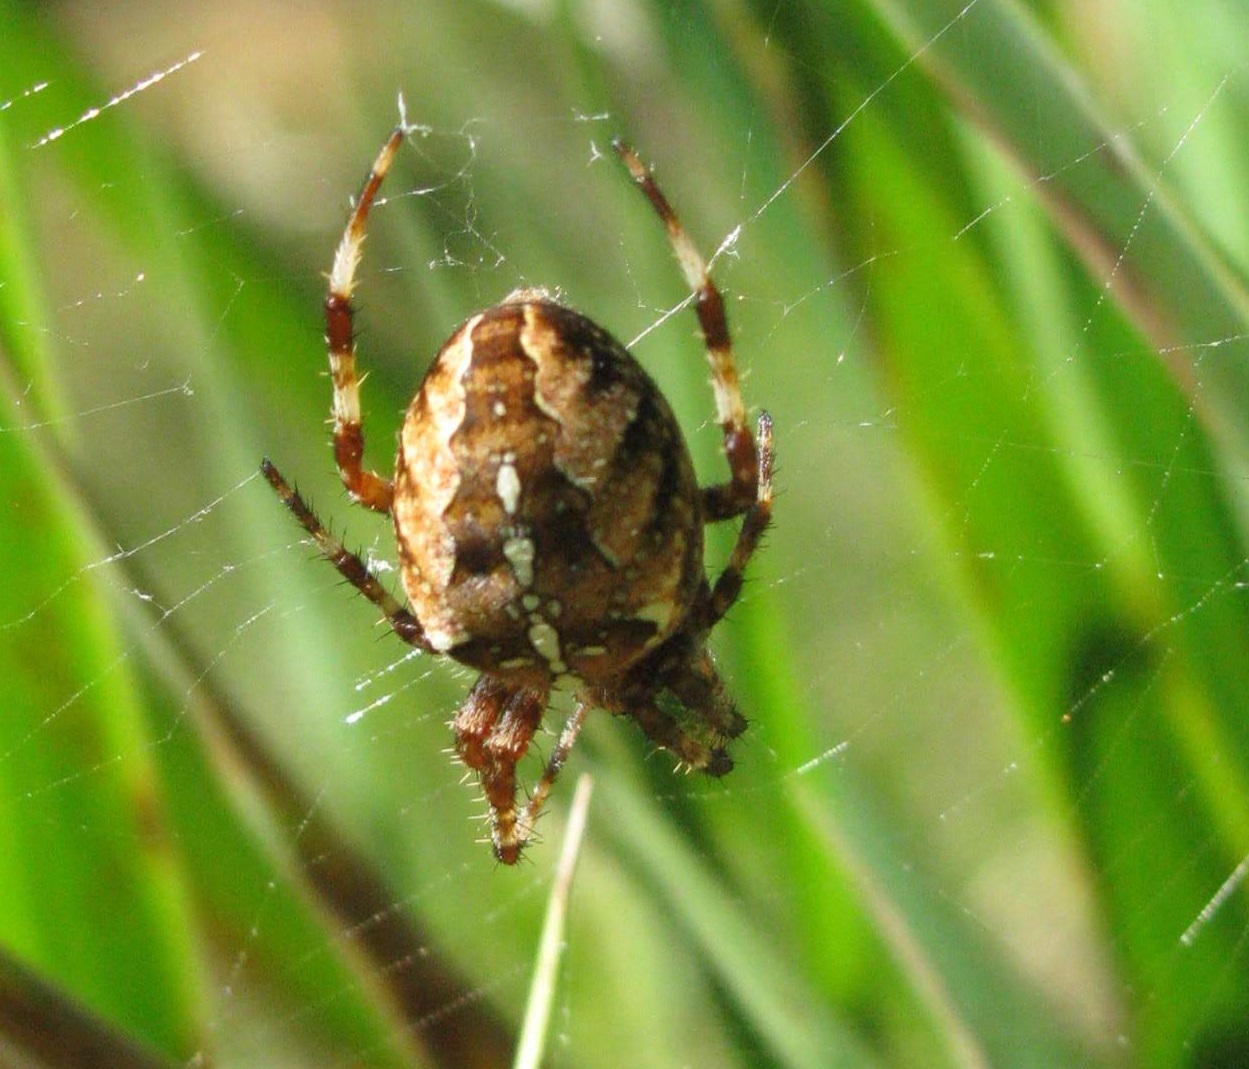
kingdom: Animalia
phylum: Arthropoda
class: Arachnida
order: Araneae
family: Araneidae
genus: Araneus
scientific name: Araneus diadematus
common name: Cross orbweaver
